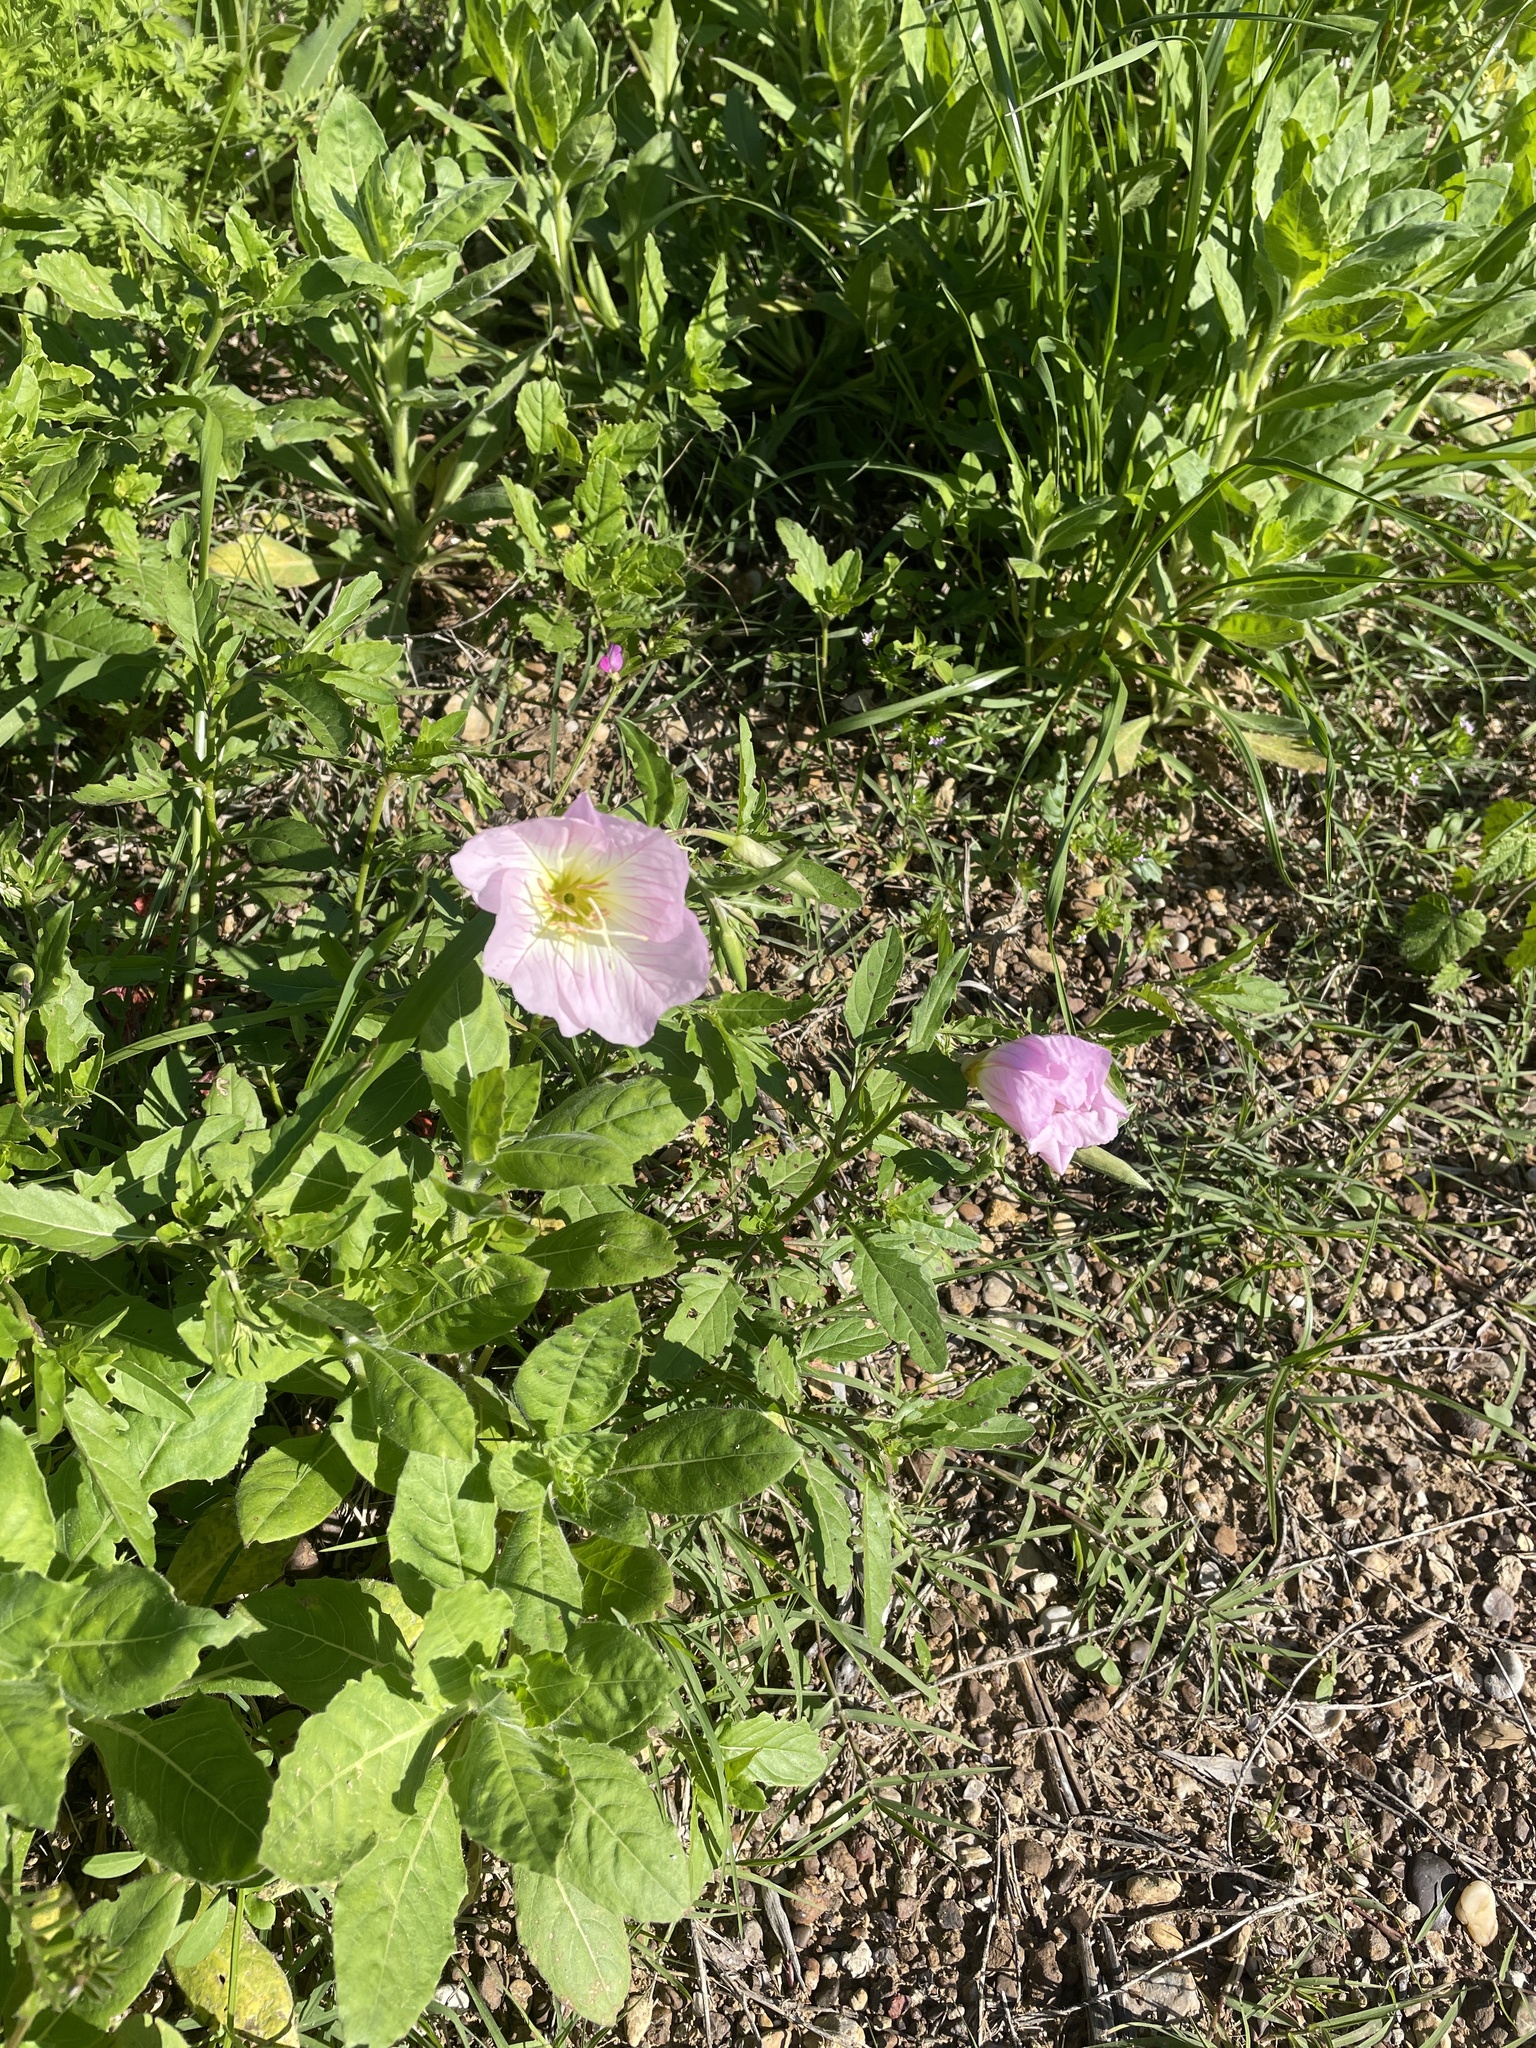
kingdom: Plantae
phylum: Tracheophyta
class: Magnoliopsida
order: Myrtales
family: Onagraceae
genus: Oenothera
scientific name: Oenothera speciosa
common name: White evening-primrose
